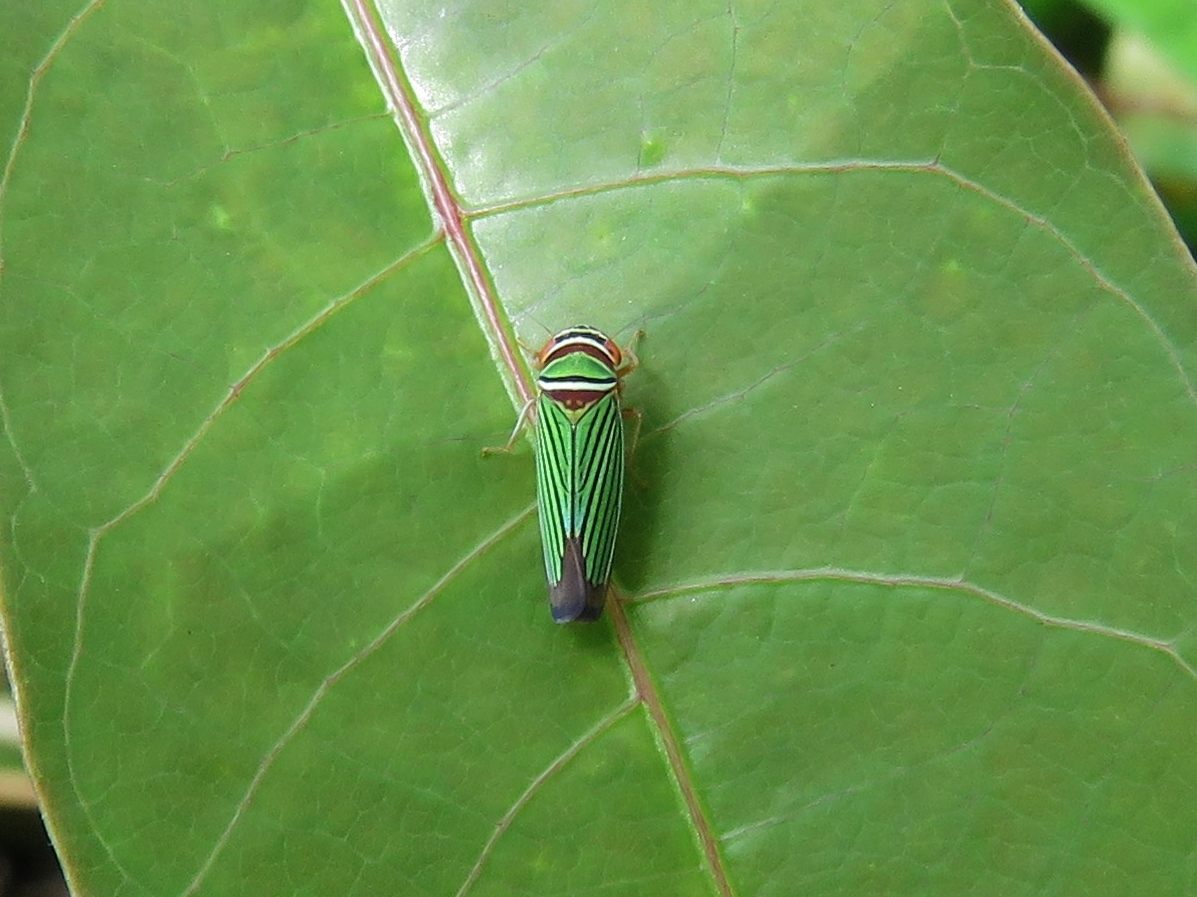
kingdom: Animalia
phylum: Arthropoda
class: Insecta
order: Hemiptera
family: Cicadellidae
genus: Tylozygus
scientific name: Tylozygus fuscolineellus
